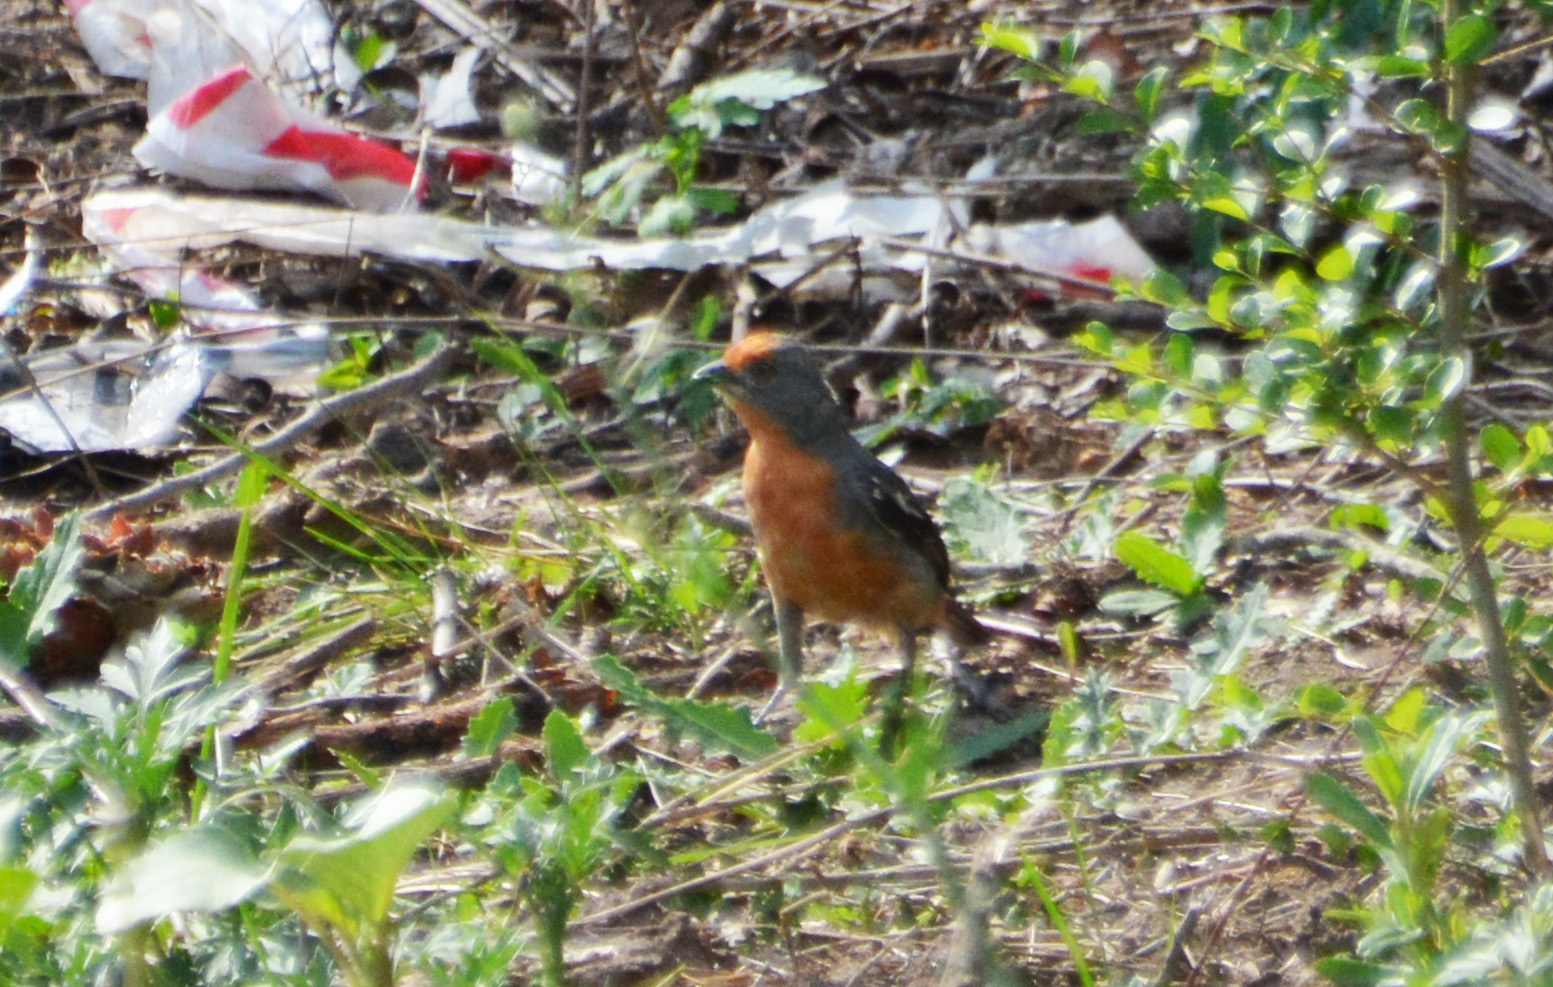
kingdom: Animalia
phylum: Chordata
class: Aves
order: Passeriformes
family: Cotingidae
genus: Phytotoma
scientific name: Phytotoma rutila
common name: White-tipped plantcutter
